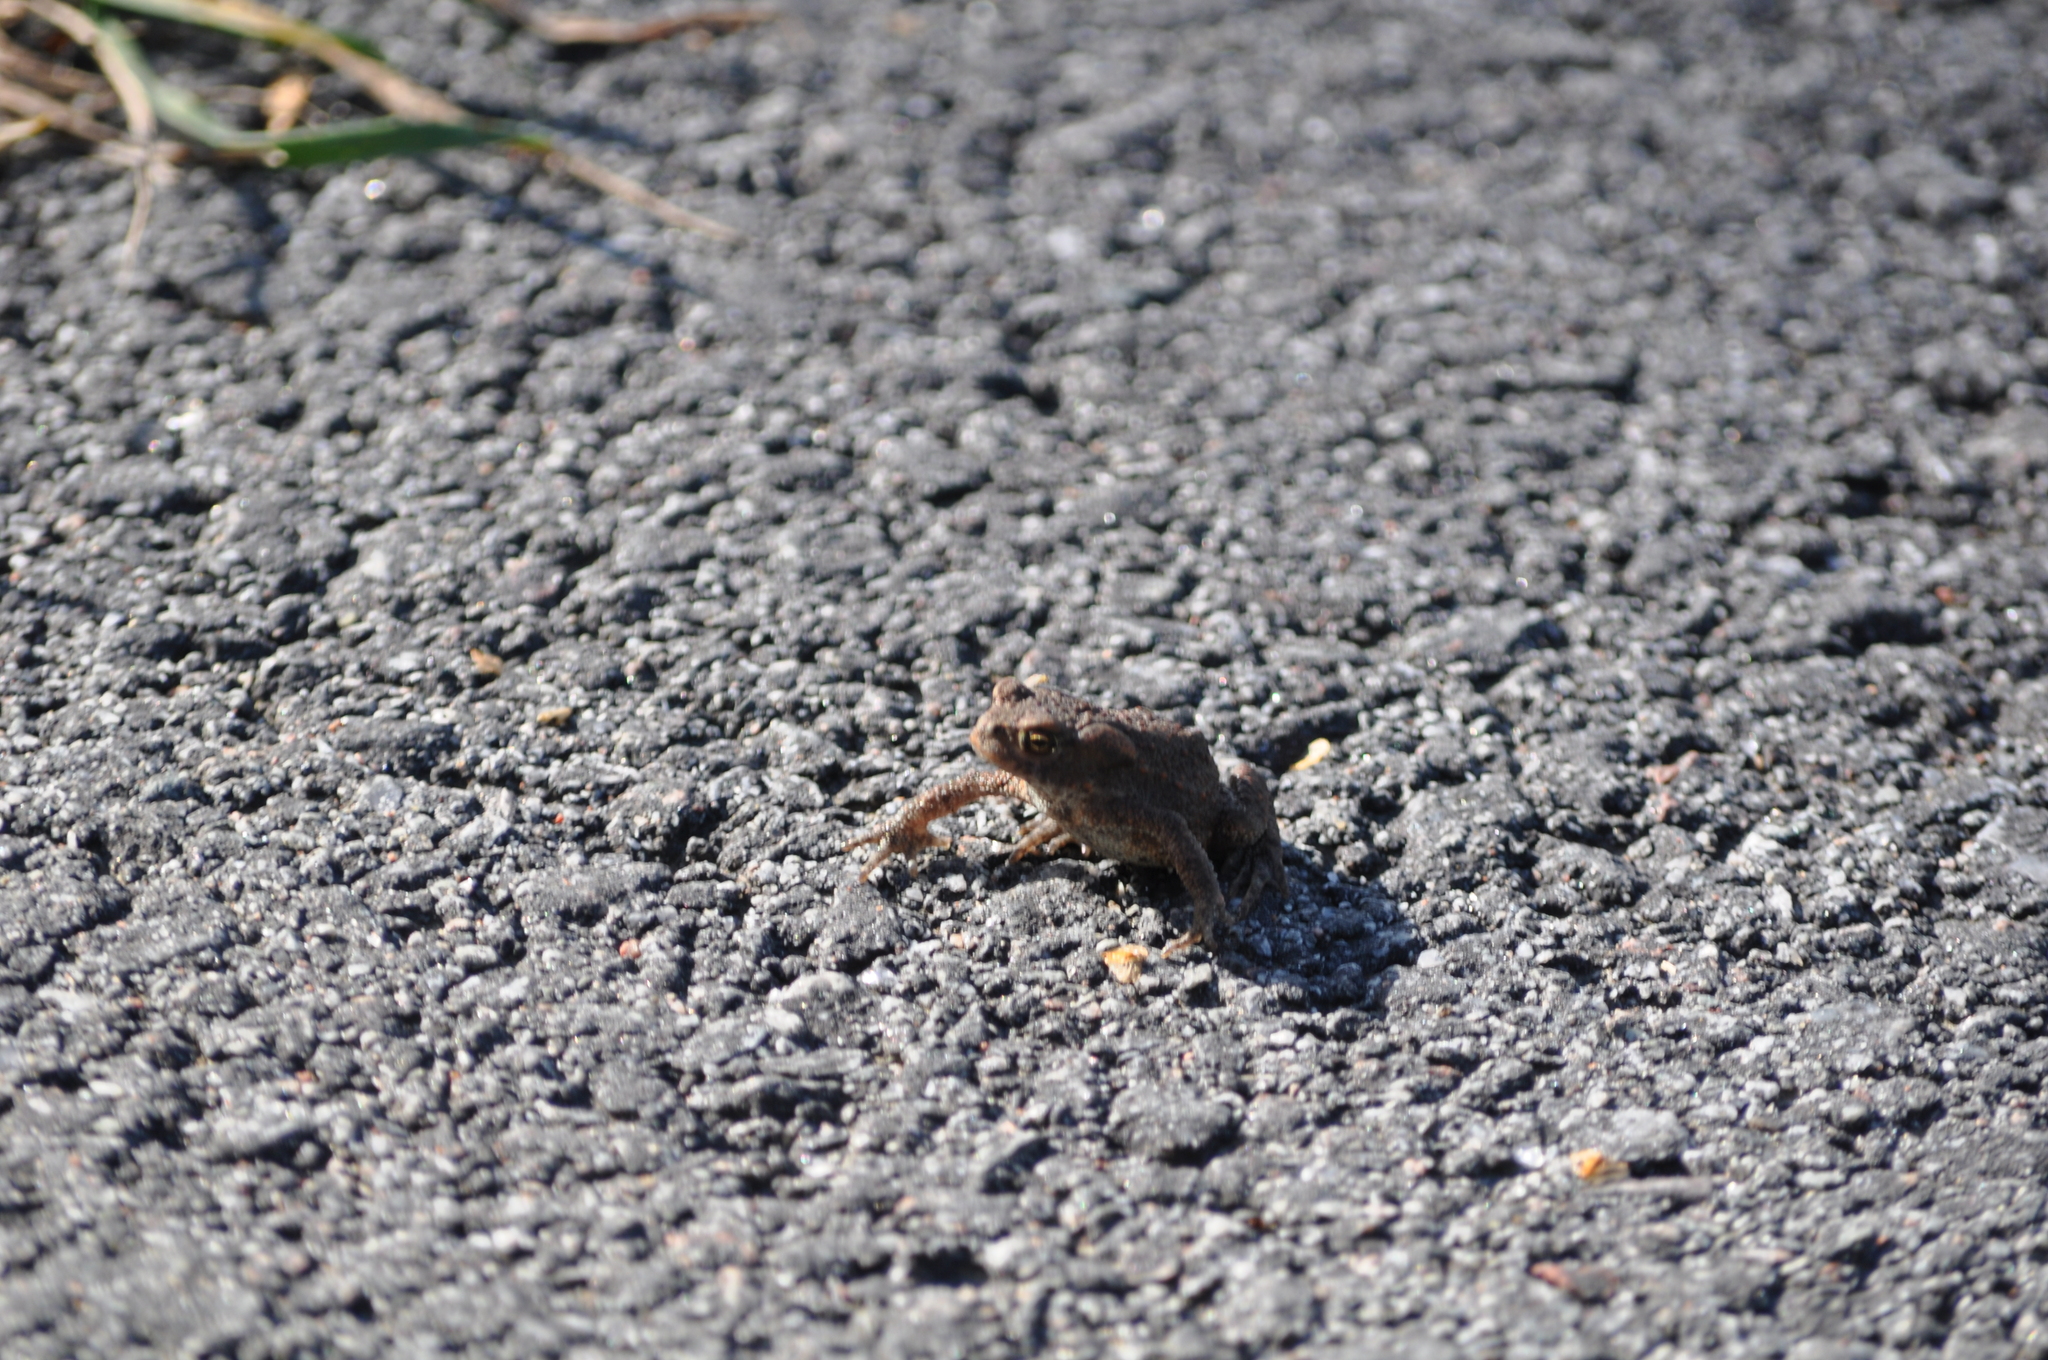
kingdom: Animalia
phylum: Chordata
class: Amphibia
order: Anura
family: Bufonidae
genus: Bufo
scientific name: Bufo bufo
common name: Common toad
